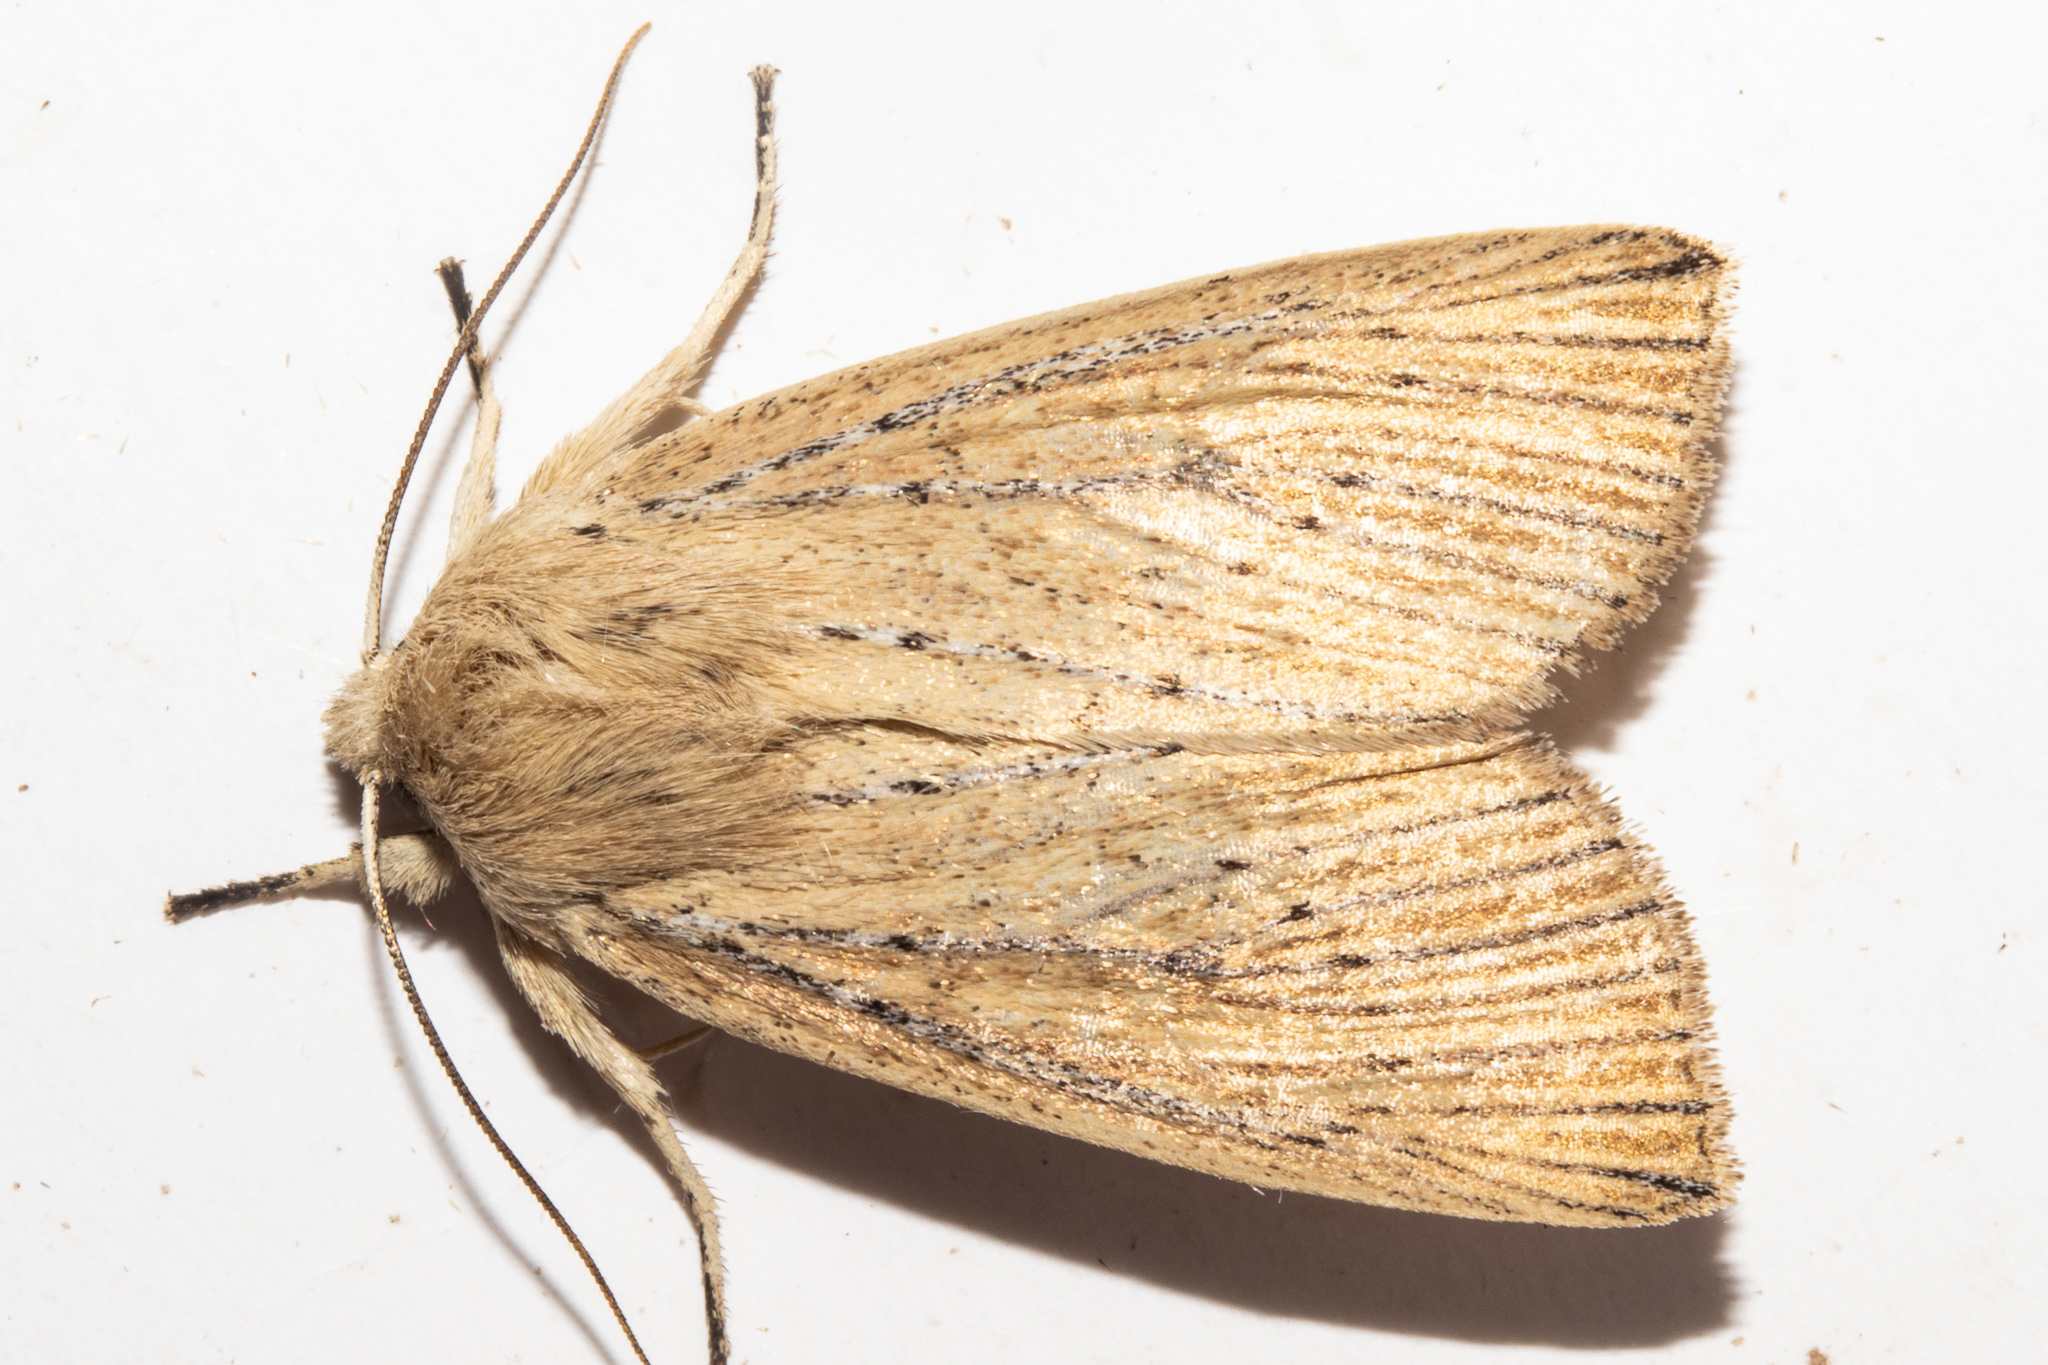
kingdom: Animalia
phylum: Arthropoda
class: Insecta
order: Lepidoptera
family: Noctuidae
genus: Ichneutica
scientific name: Ichneutica cornuta
